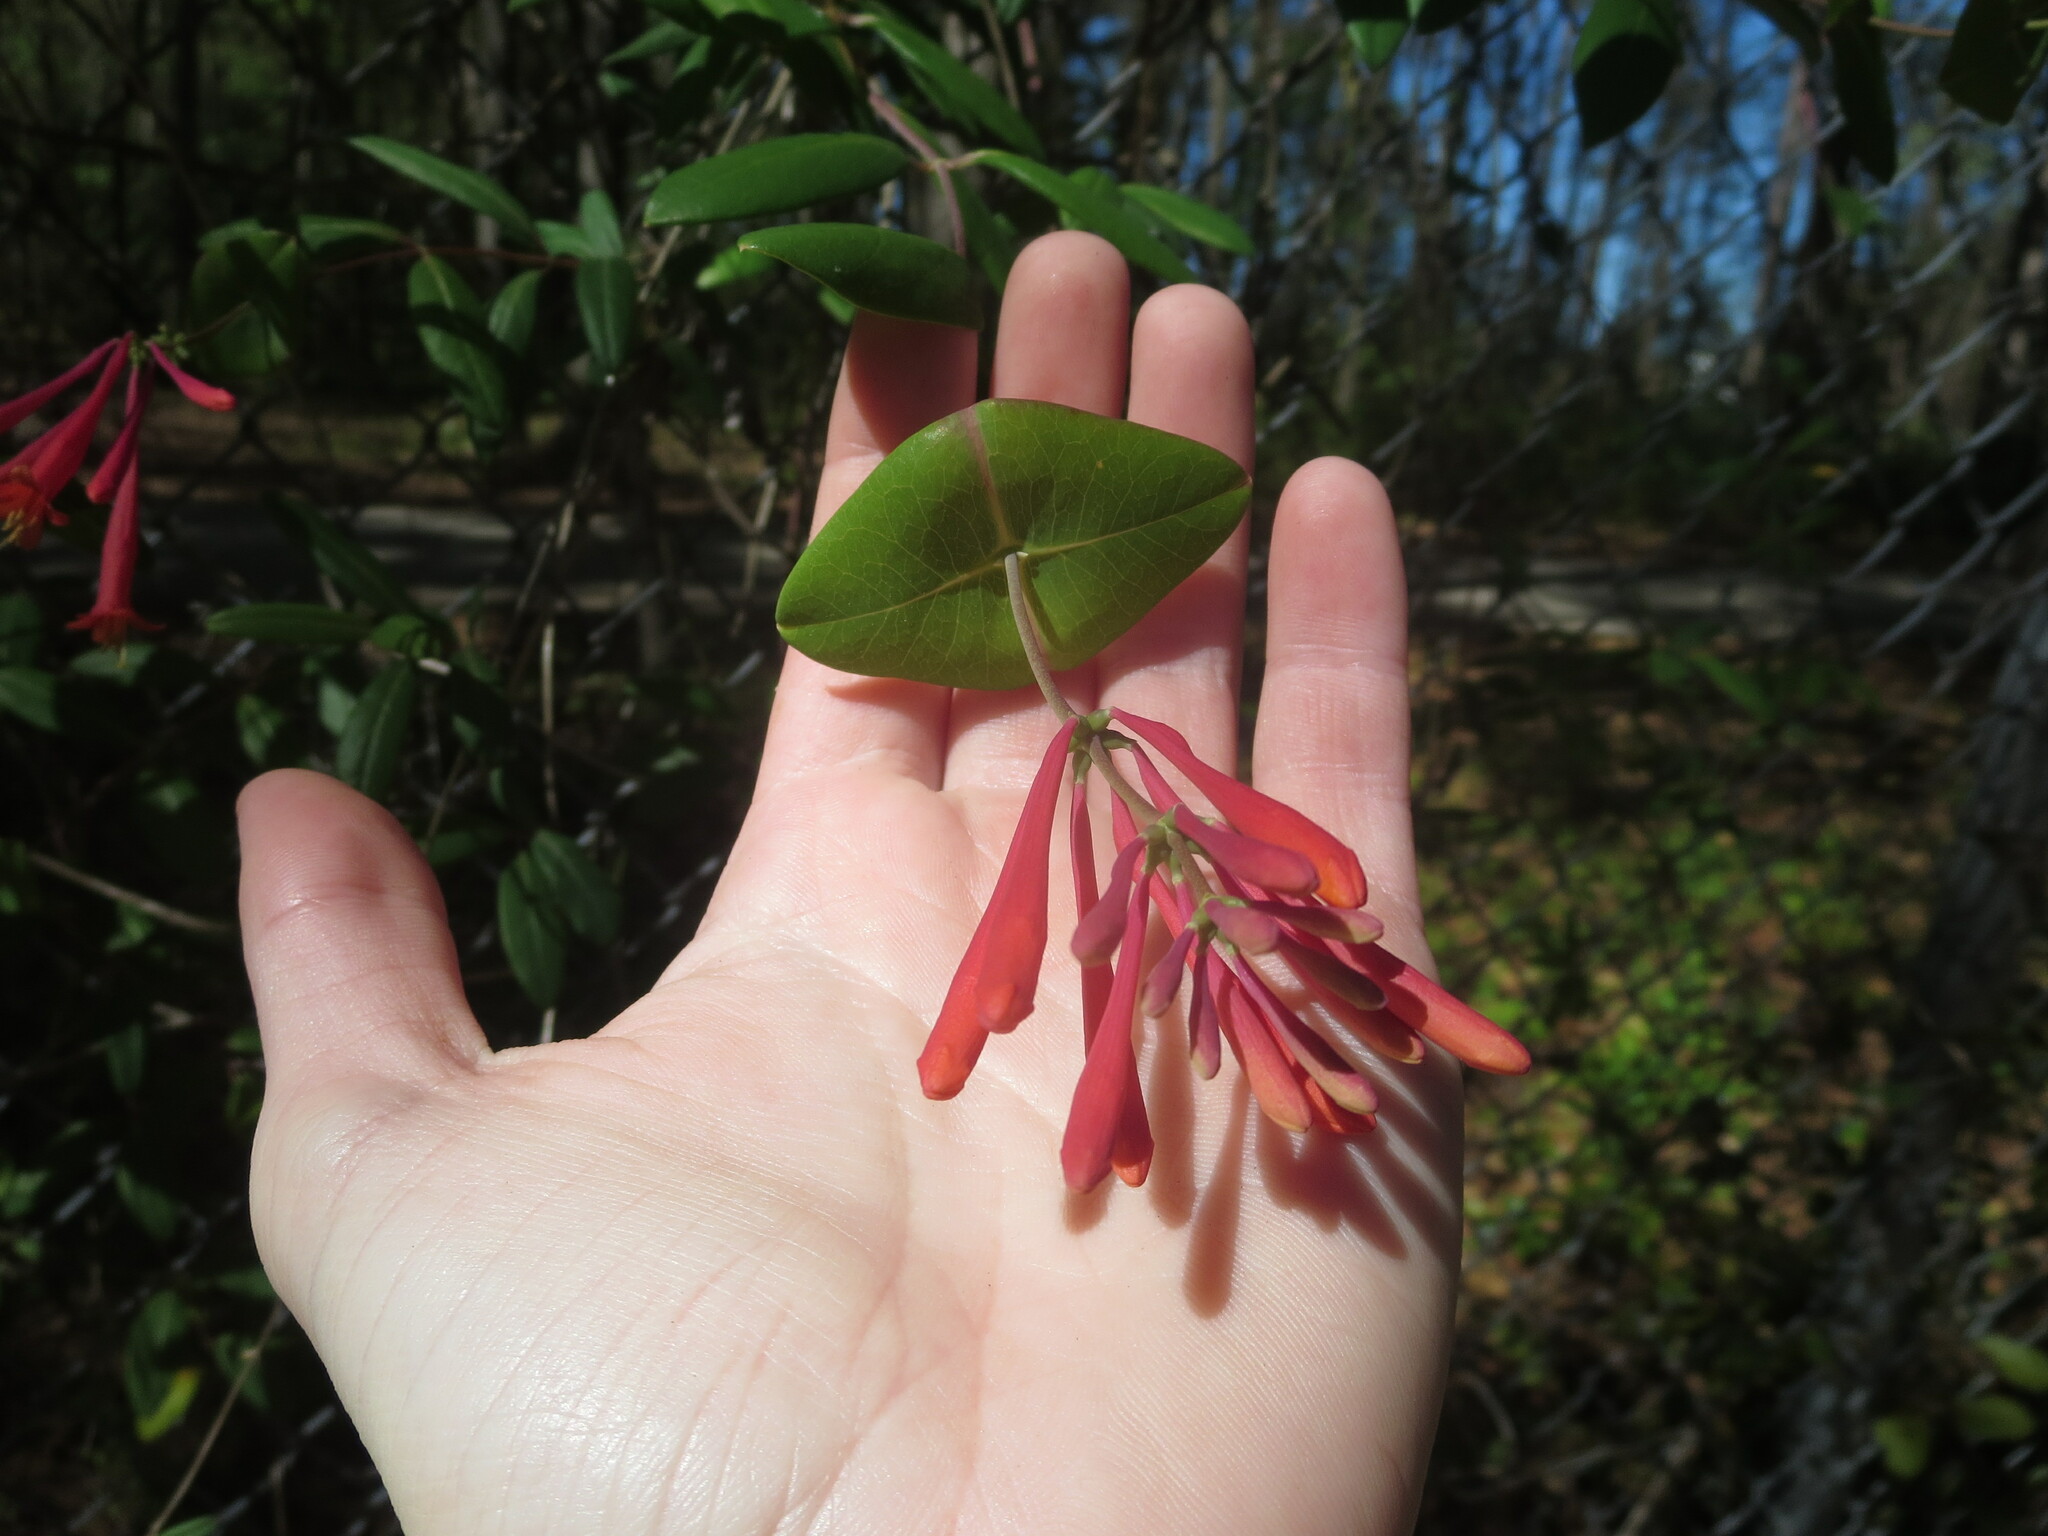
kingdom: Plantae
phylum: Tracheophyta
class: Magnoliopsida
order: Dipsacales
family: Caprifoliaceae
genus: Lonicera
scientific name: Lonicera sempervirens
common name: Coral honeysuckle
